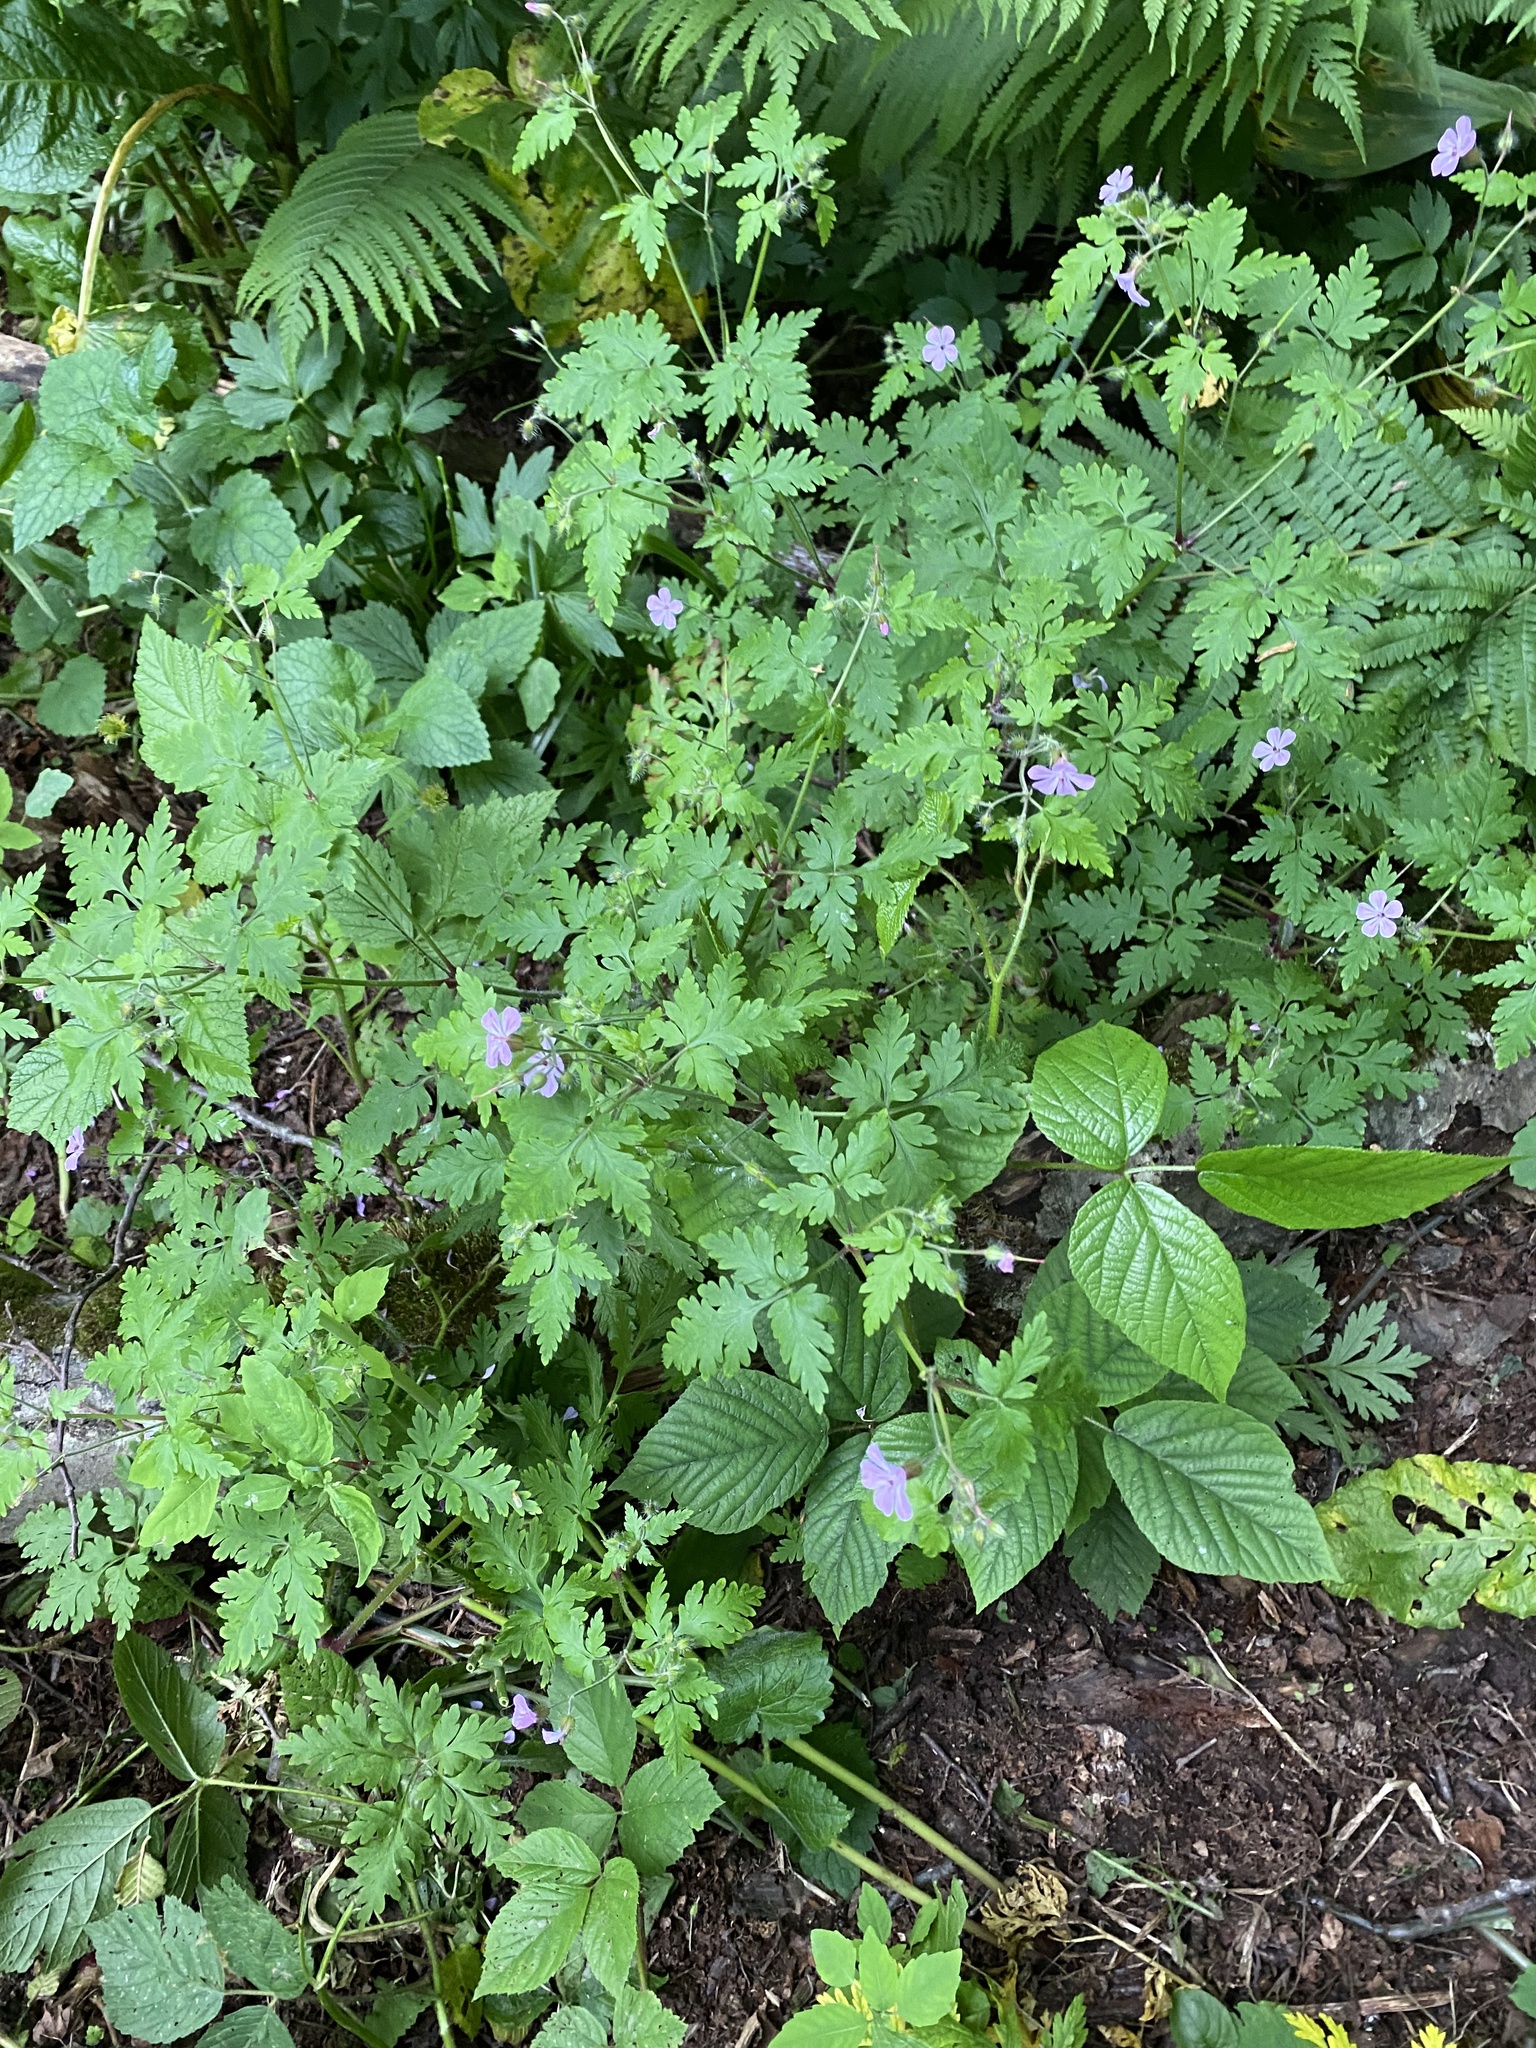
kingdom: Plantae
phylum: Tracheophyta
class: Magnoliopsida
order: Geraniales
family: Geraniaceae
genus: Geranium
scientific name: Geranium robertianum
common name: Herb-robert
